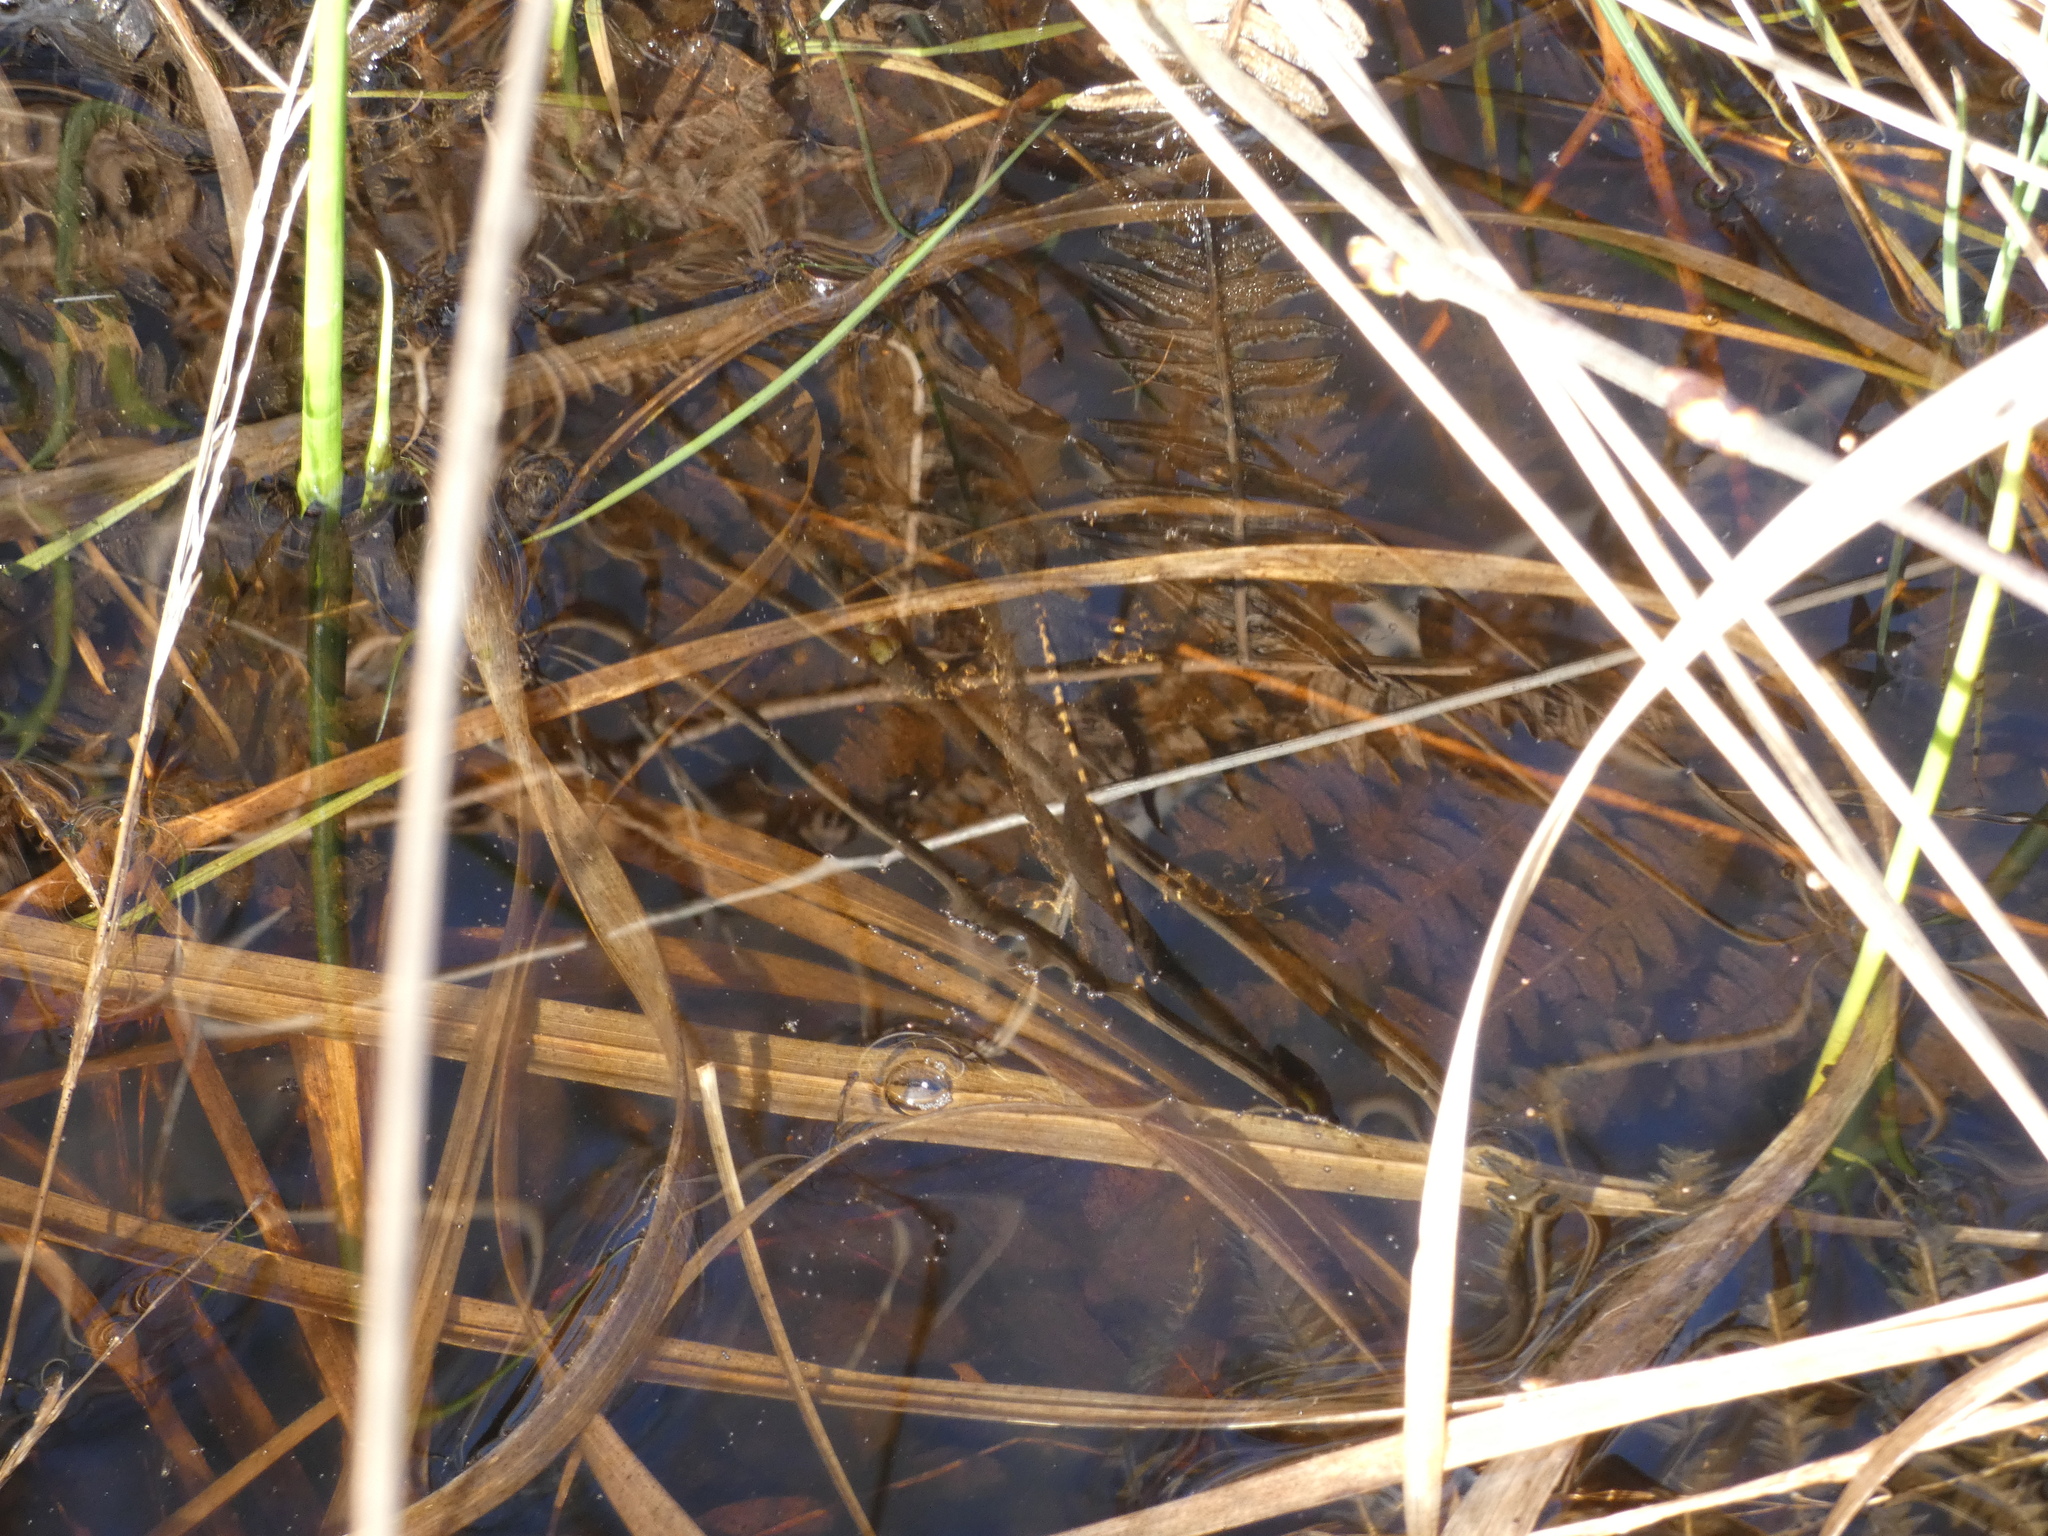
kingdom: Animalia
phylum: Chordata
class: Amphibia
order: Caudata
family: Salamandridae
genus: Ichthyosaura
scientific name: Ichthyosaura alpestris
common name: Alpine newt
